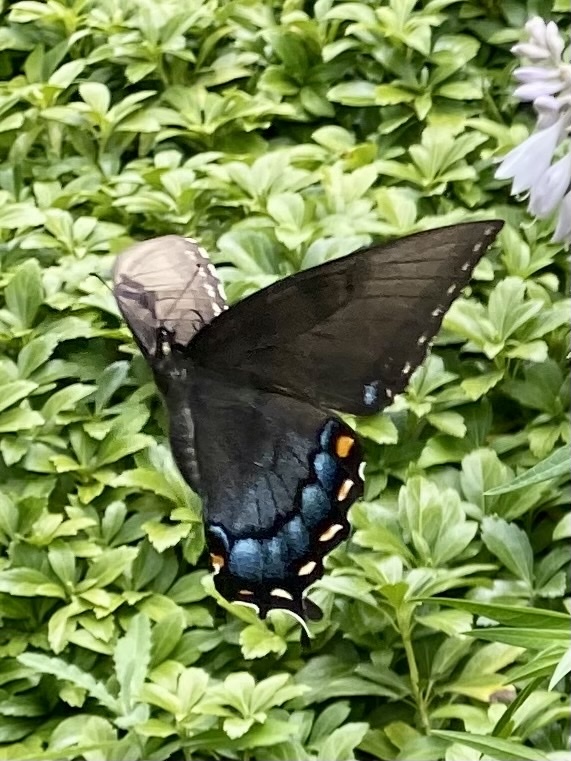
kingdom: Animalia
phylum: Arthropoda
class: Insecta
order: Lepidoptera
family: Papilionidae
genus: Papilio
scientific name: Papilio glaucus
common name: Tiger swallowtail
